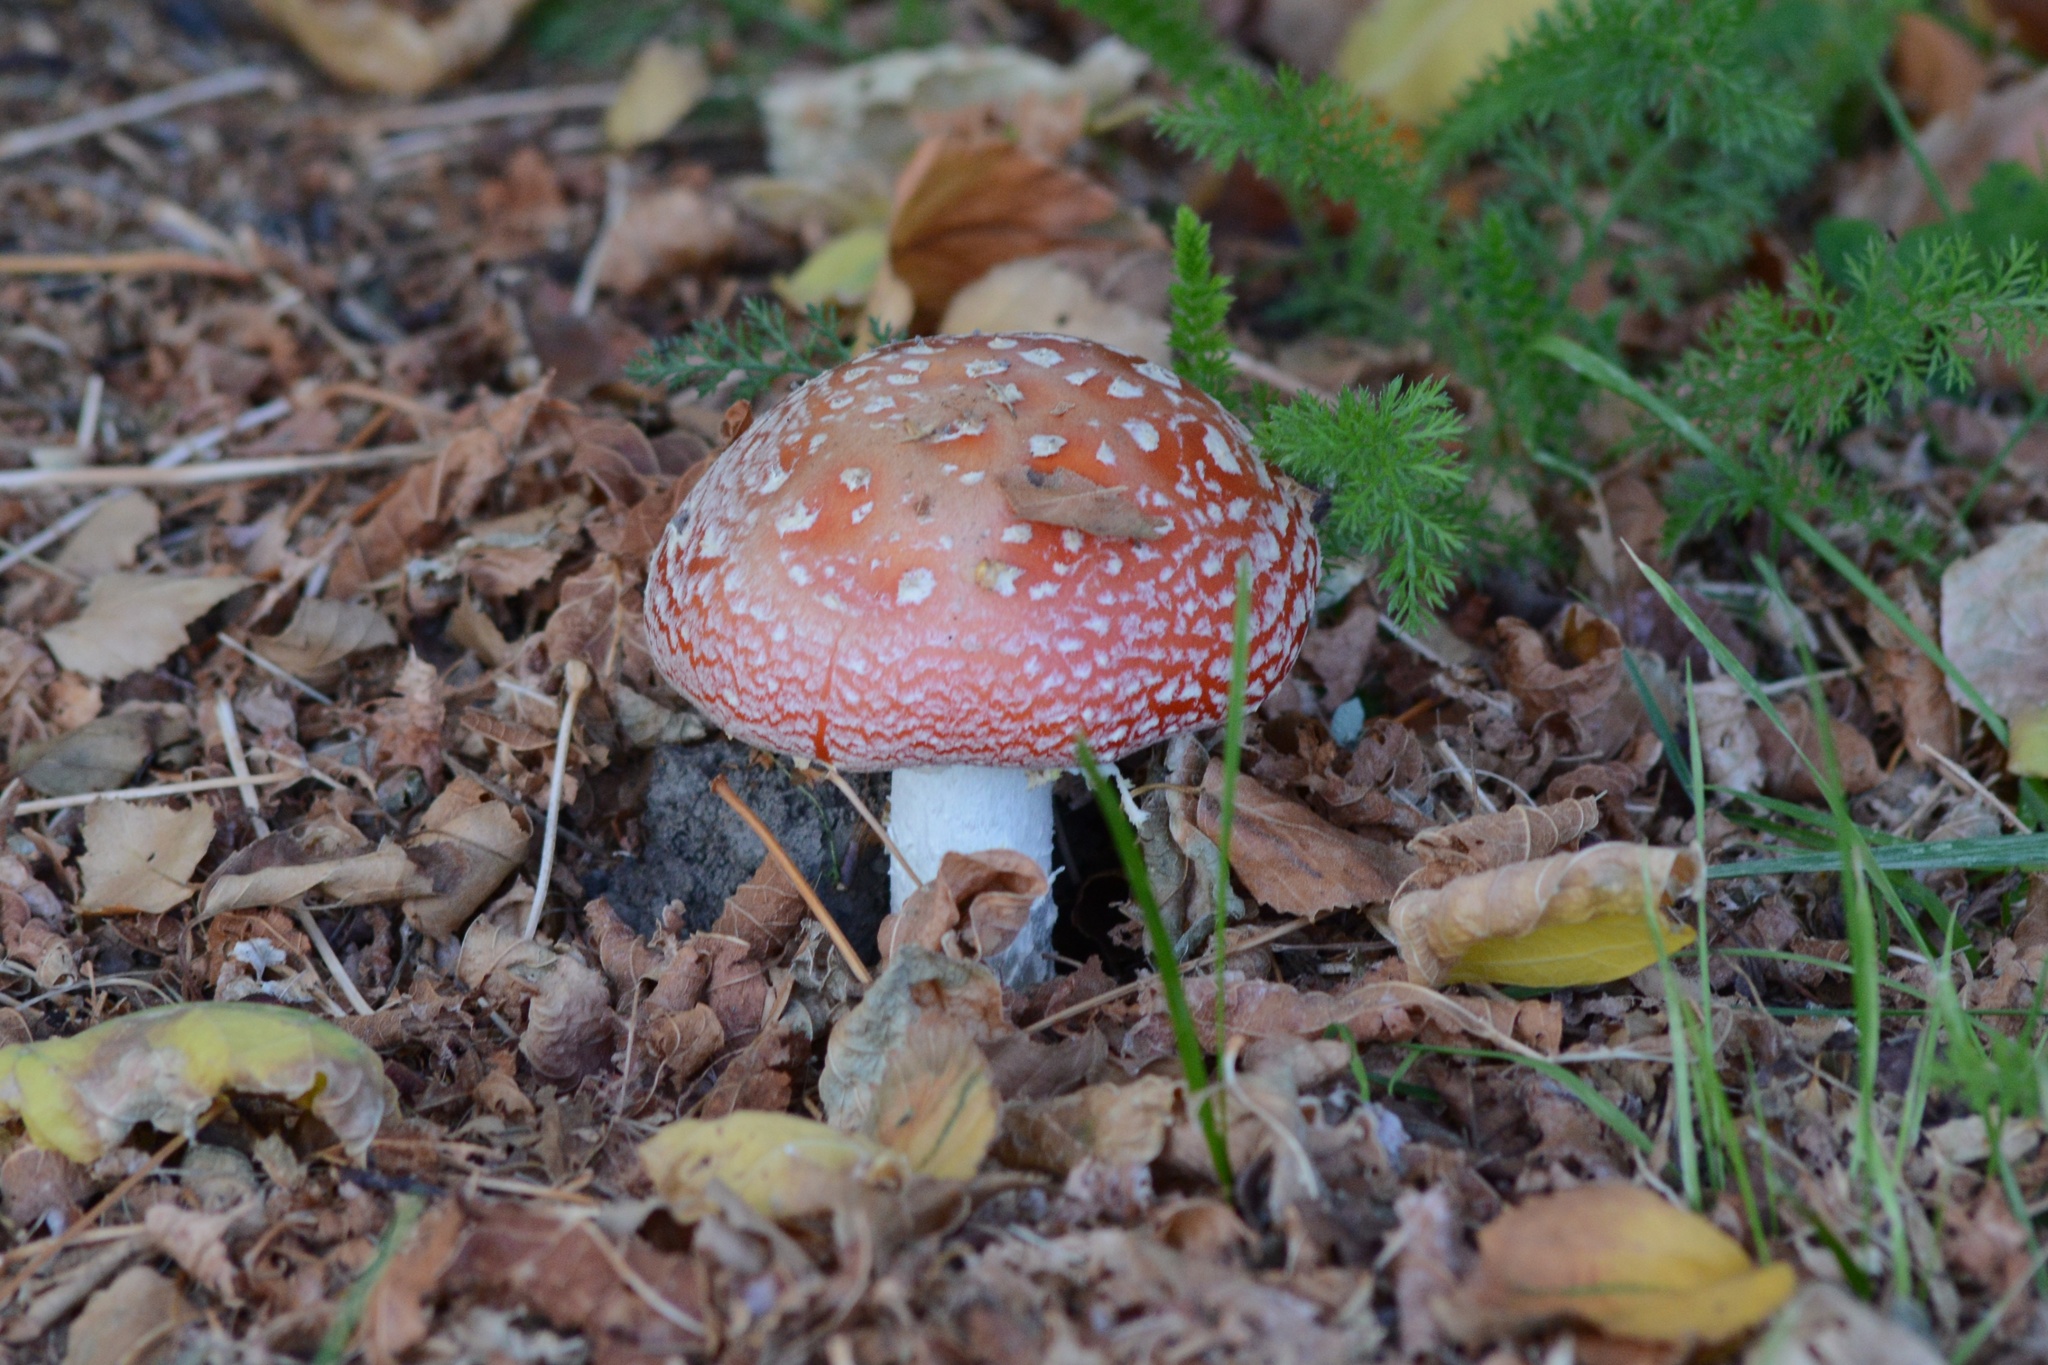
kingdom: Fungi
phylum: Basidiomycota
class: Agaricomycetes
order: Agaricales
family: Amanitaceae
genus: Amanita
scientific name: Amanita muscaria
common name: Fly agaric
